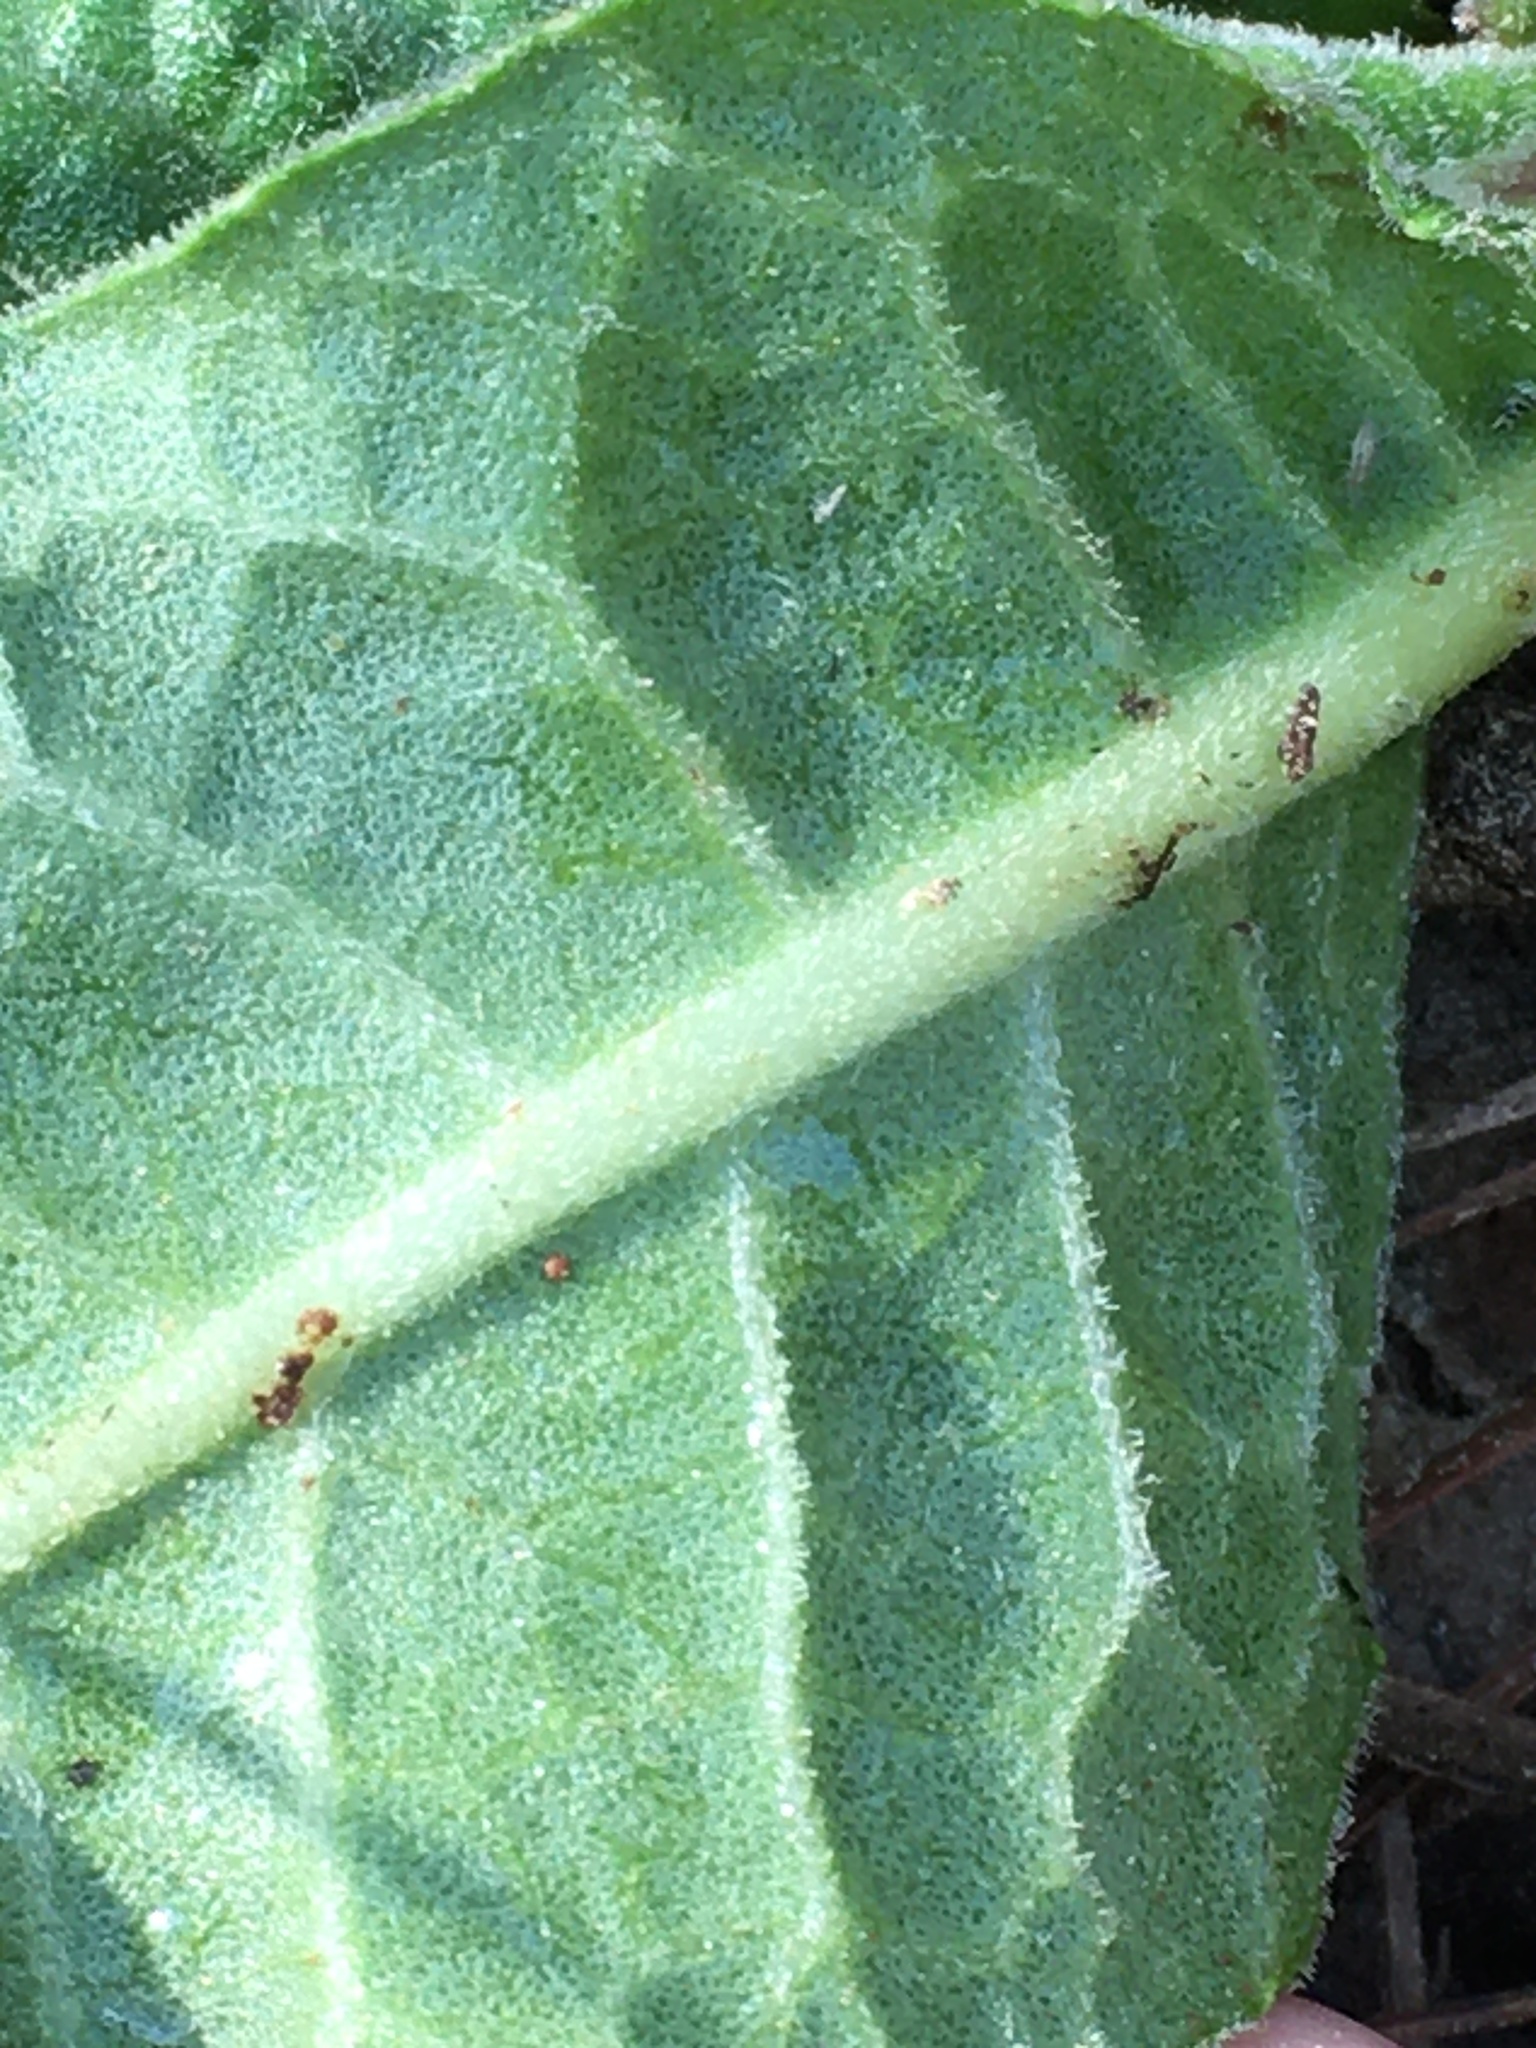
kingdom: Plantae
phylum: Tracheophyta
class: Magnoliopsida
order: Asterales
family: Asteraceae
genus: Vernonia
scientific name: Vernonia acaulis
